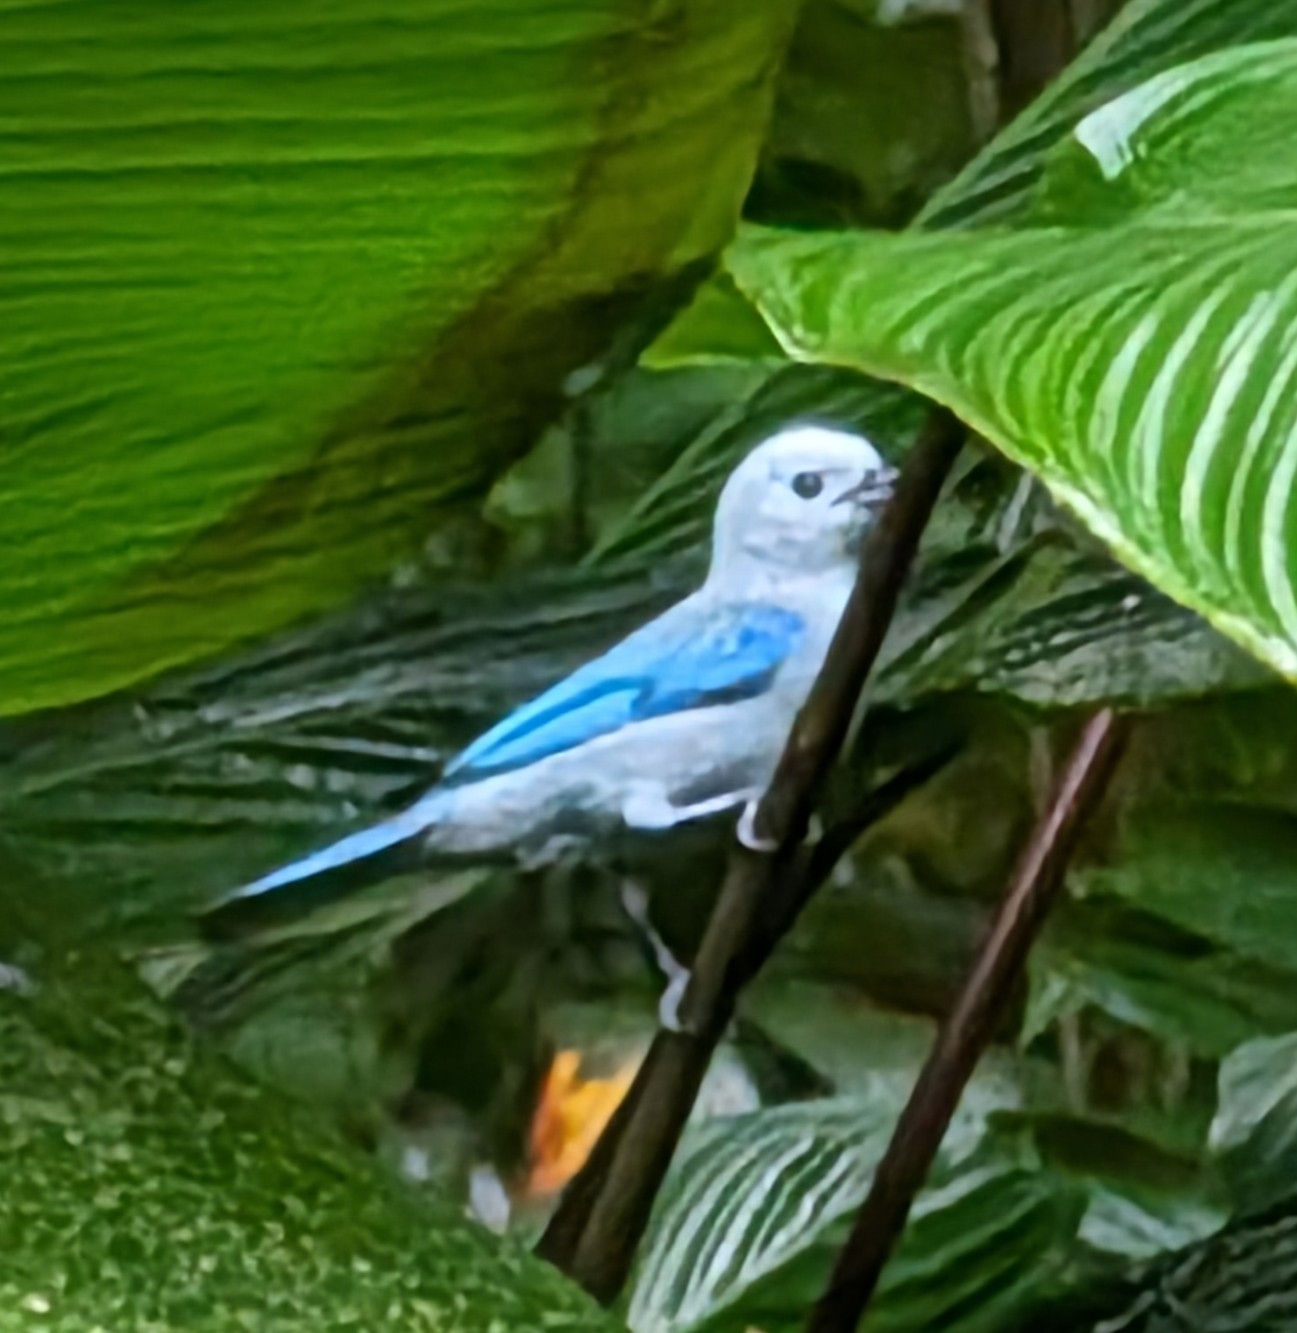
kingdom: Animalia
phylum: Chordata
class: Aves
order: Passeriformes
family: Thraupidae
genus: Thraupis
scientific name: Thraupis episcopus
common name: Blue-grey tanager
